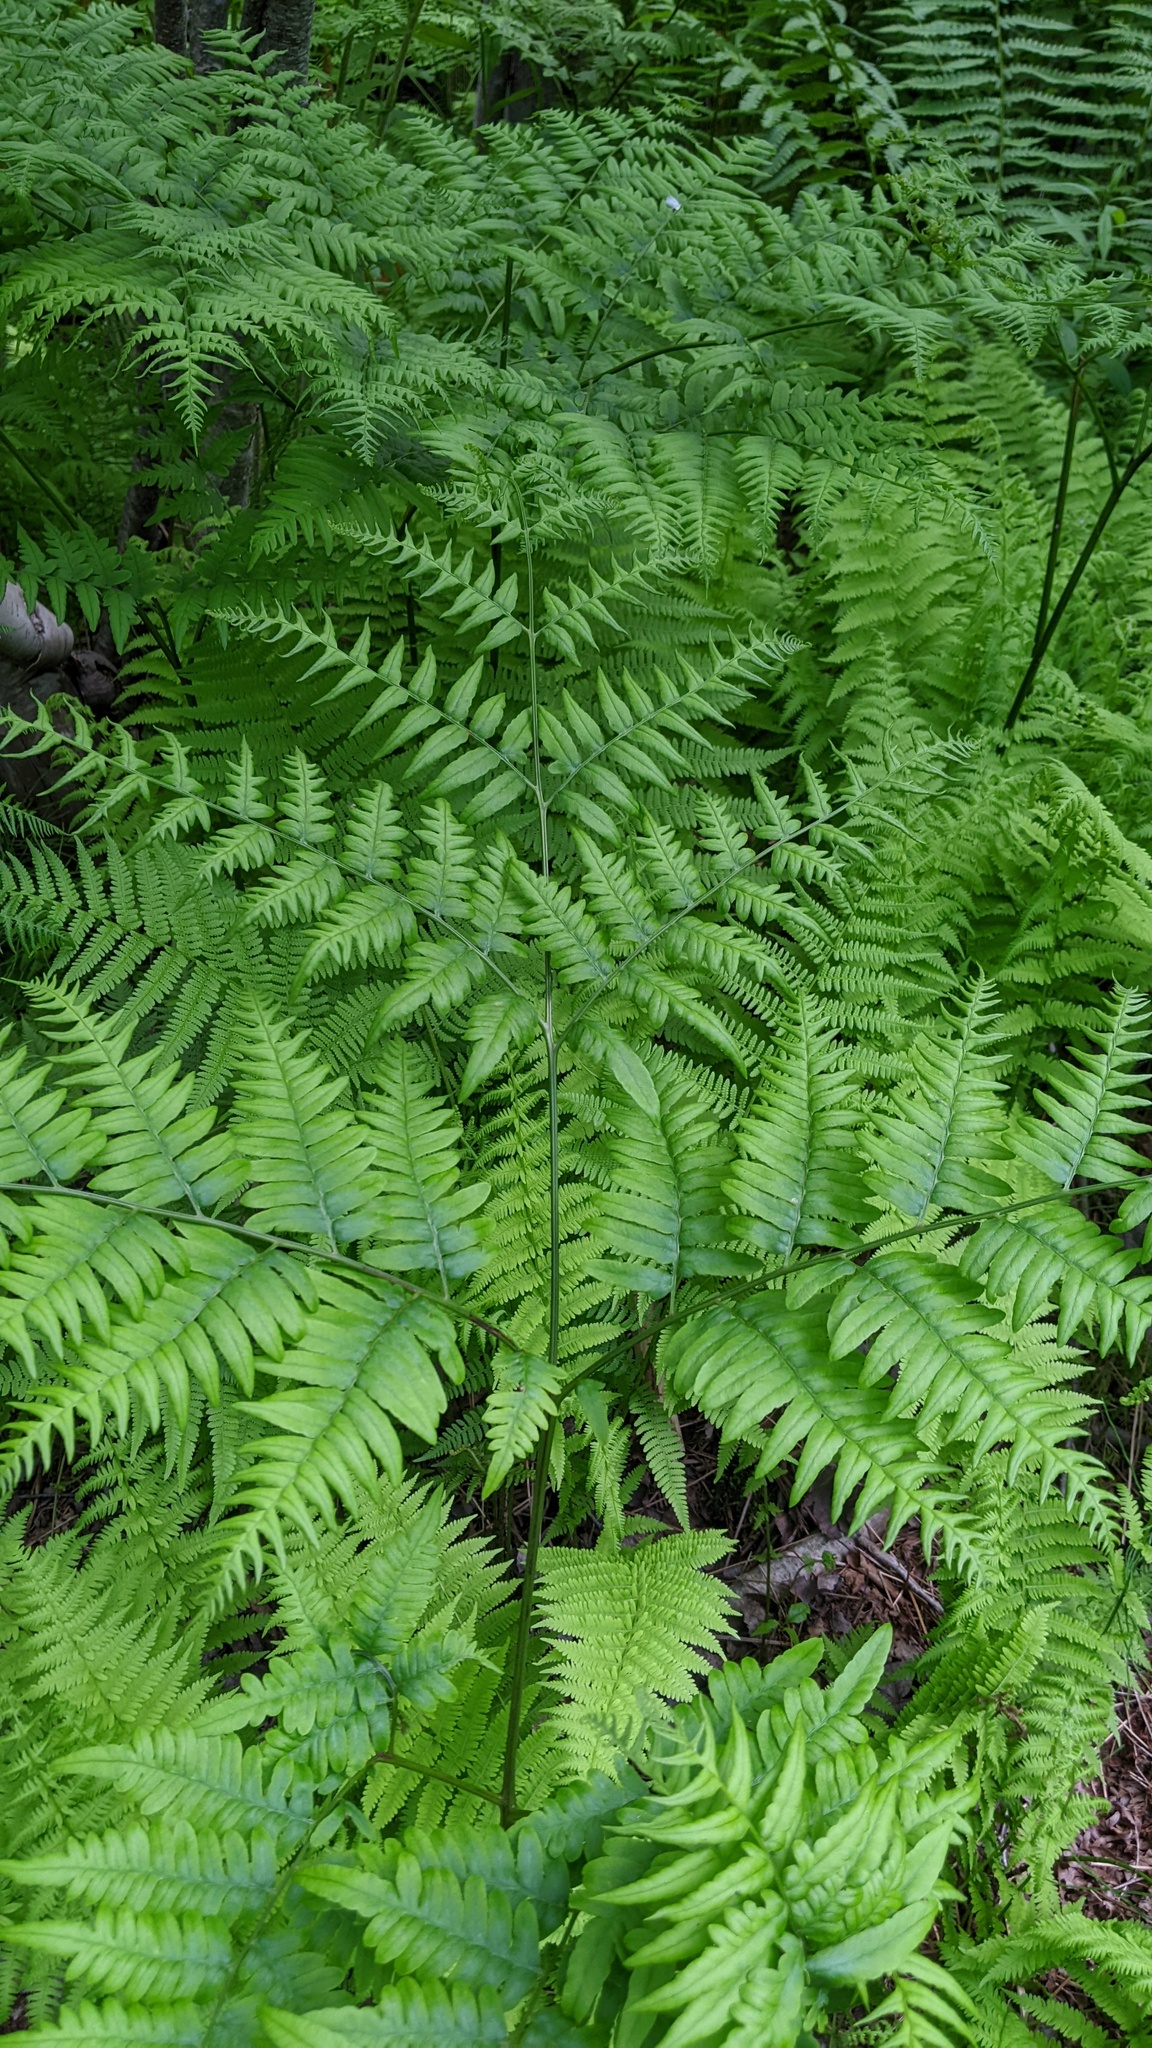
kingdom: Plantae
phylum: Tracheophyta
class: Polypodiopsida
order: Polypodiales
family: Dennstaedtiaceae
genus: Pteridium
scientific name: Pteridium aquilinum
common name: Bracken
